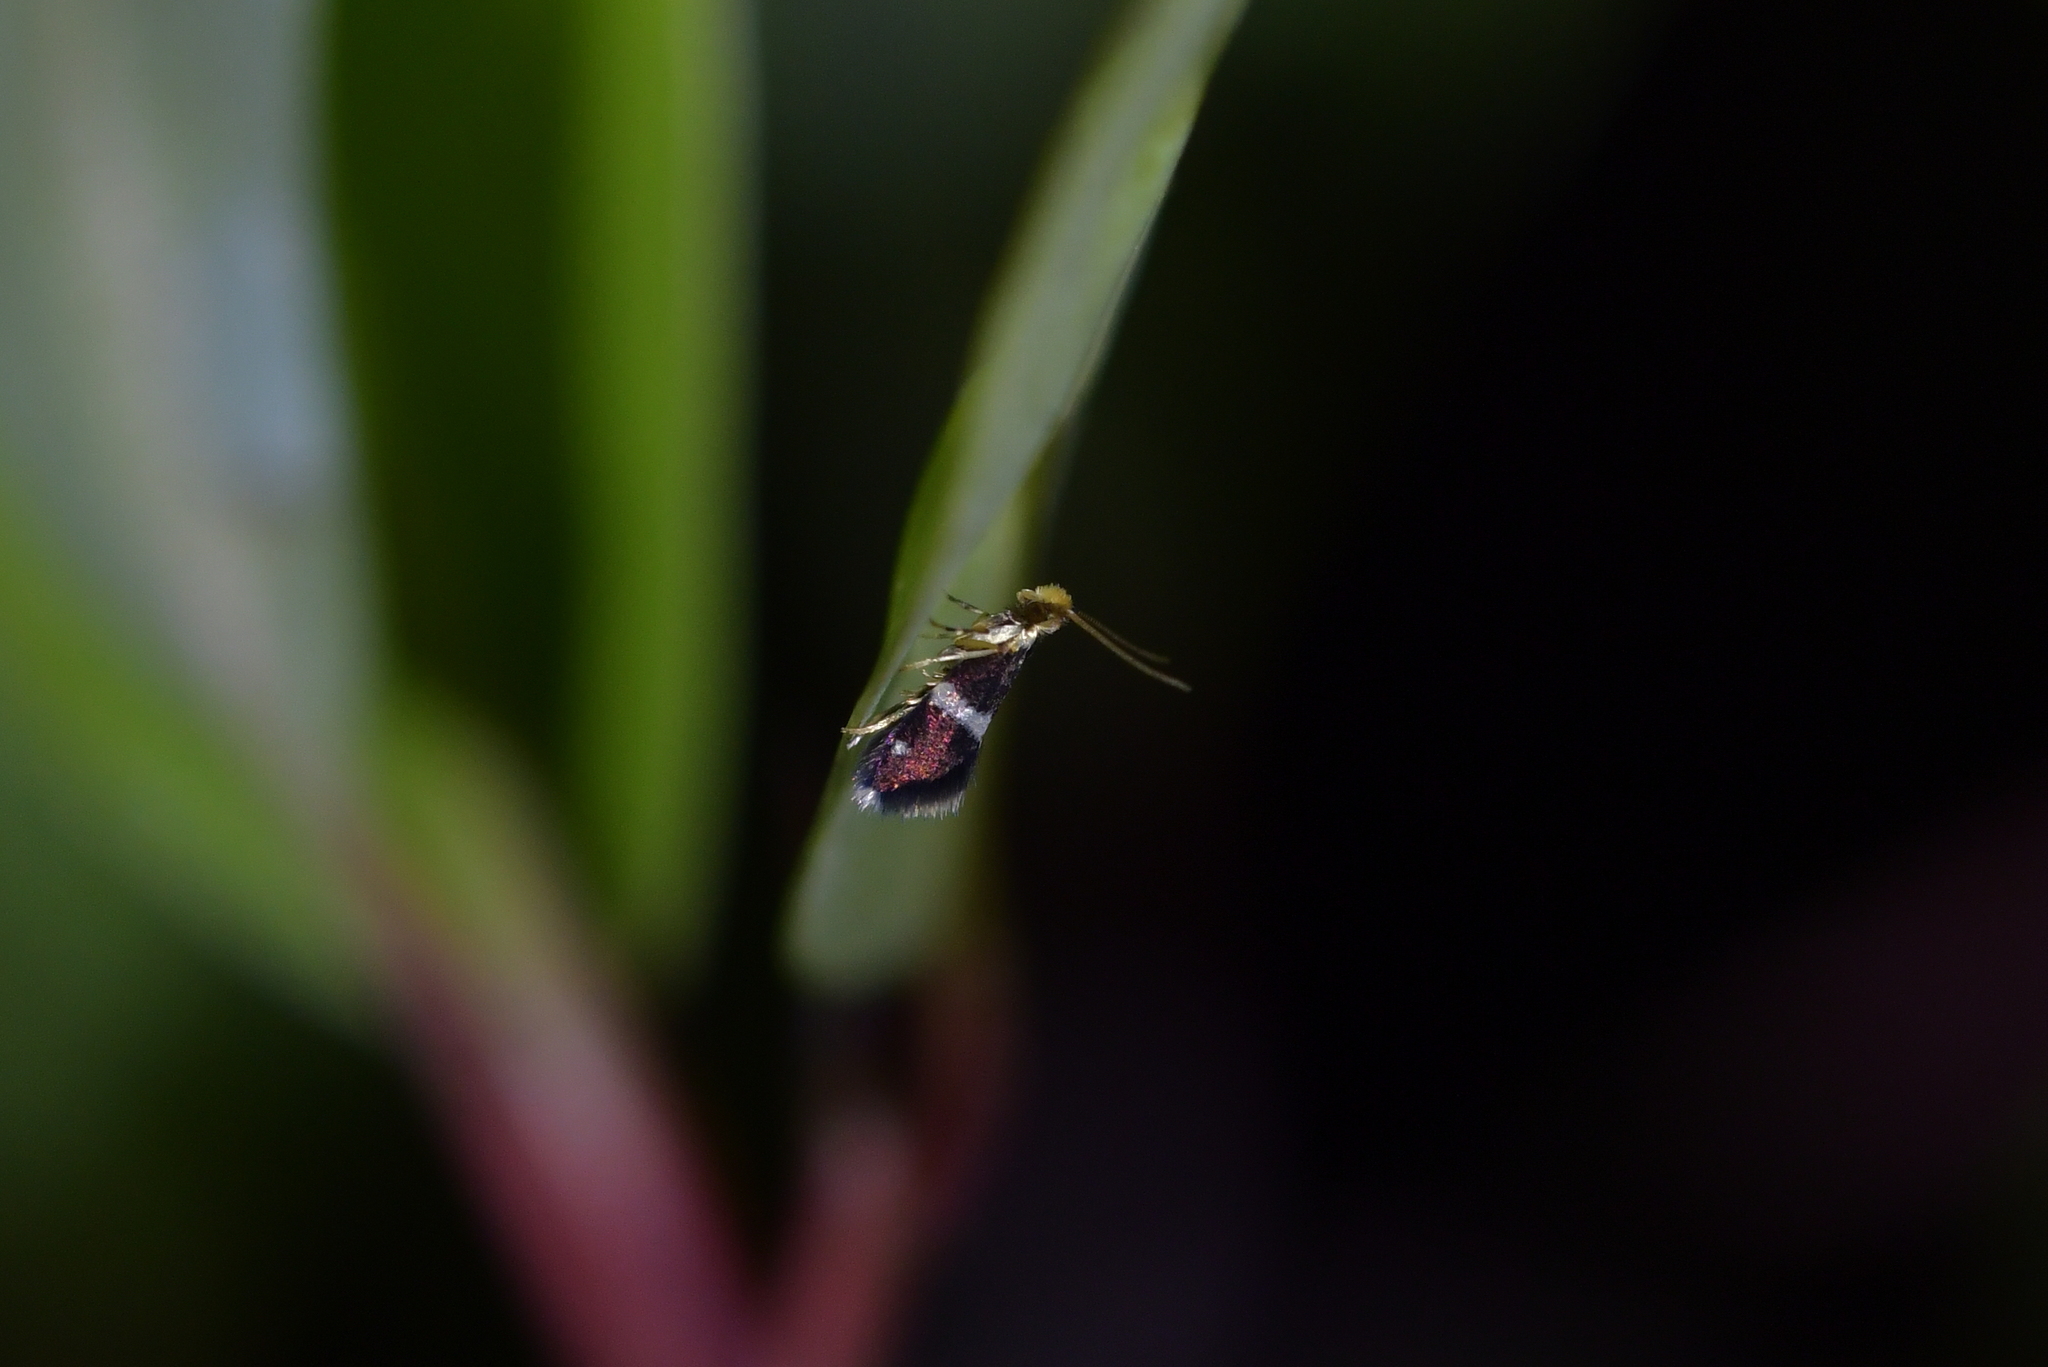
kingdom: Animalia
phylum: Arthropoda
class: Insecta
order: Lepidoptera
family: Micropterigidae
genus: Zealandopterix
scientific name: Zealandopterix zonodoxa
